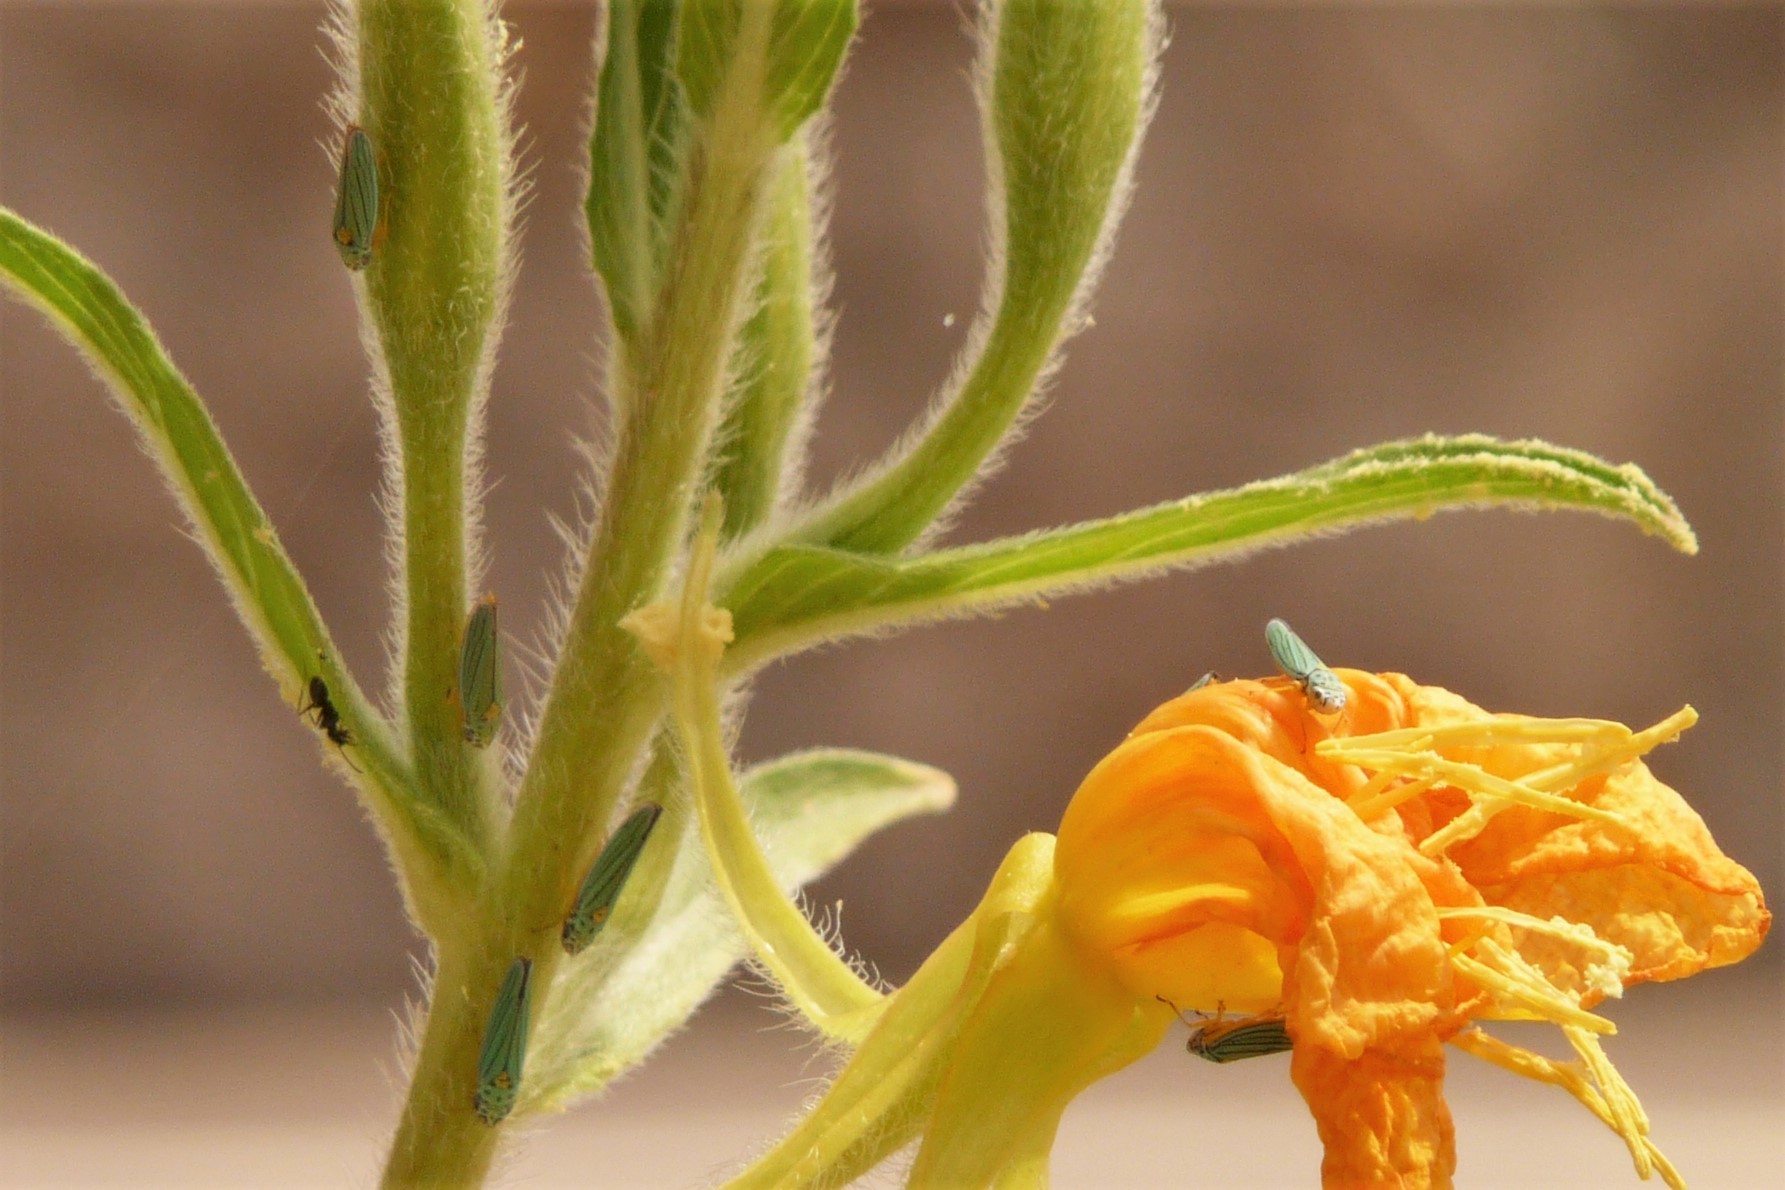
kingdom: Animalia
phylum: Arthropoda
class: Insecta
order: Hemiptera
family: Cicadellidae
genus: Graphocephala
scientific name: Graphocephala atropunctata
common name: Blue-green sharpshooter
